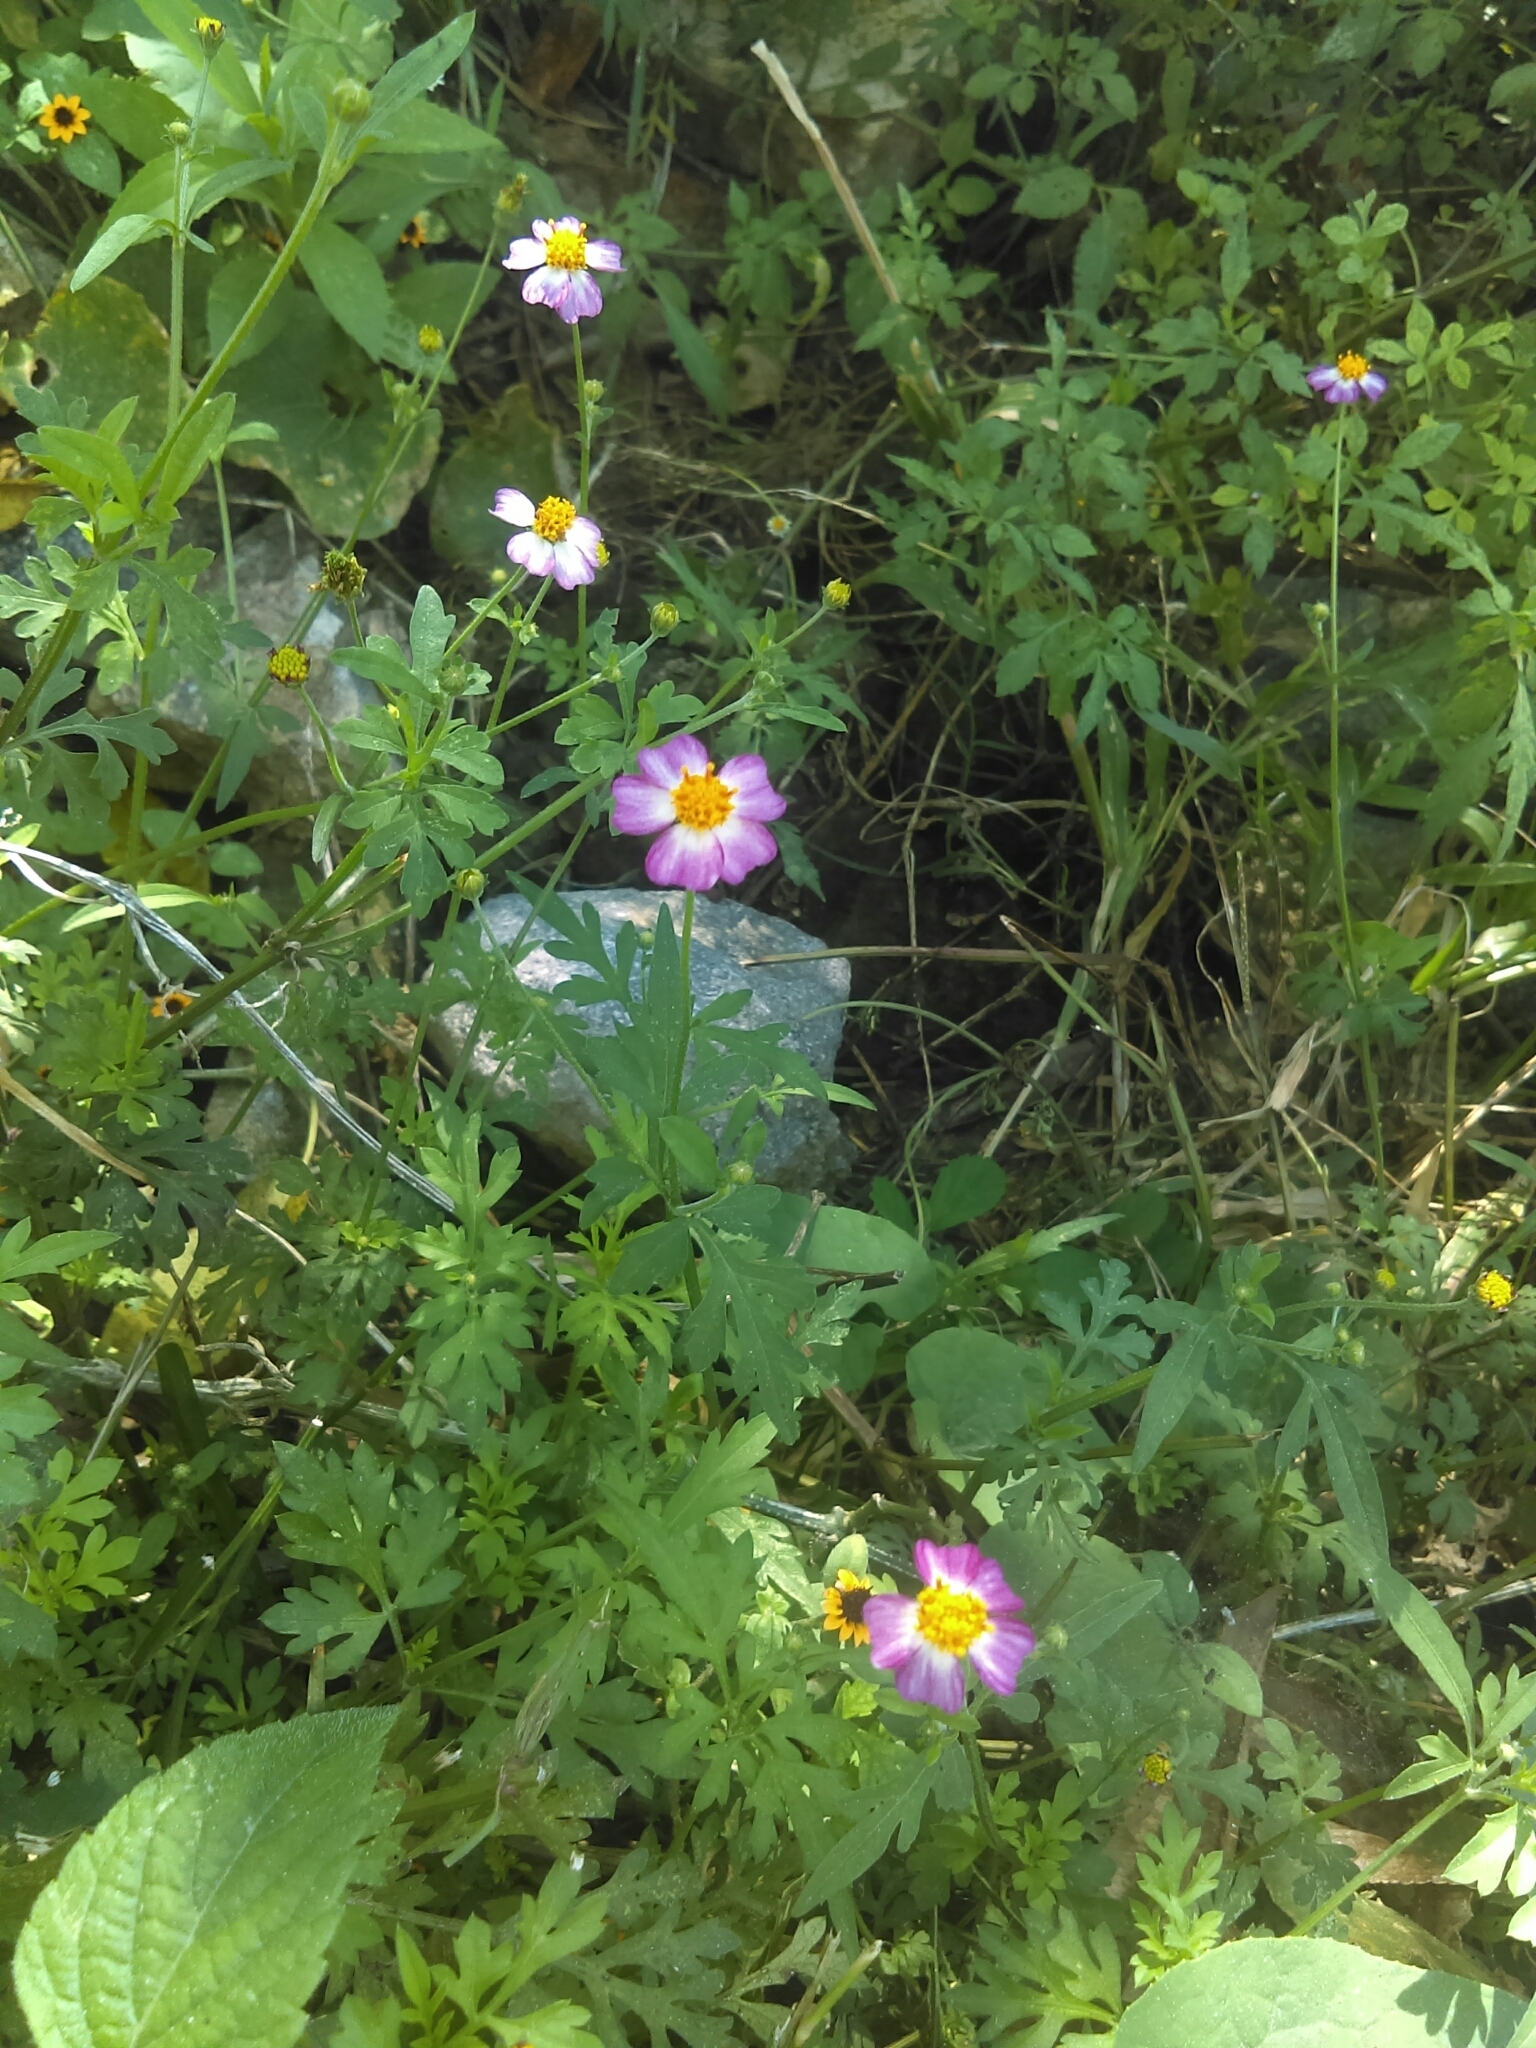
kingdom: Plantae
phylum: Tracheophyta
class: Magnoliopsida
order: Asterales
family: Asteraceae
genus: Bidens
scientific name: Bidens aequisquama
